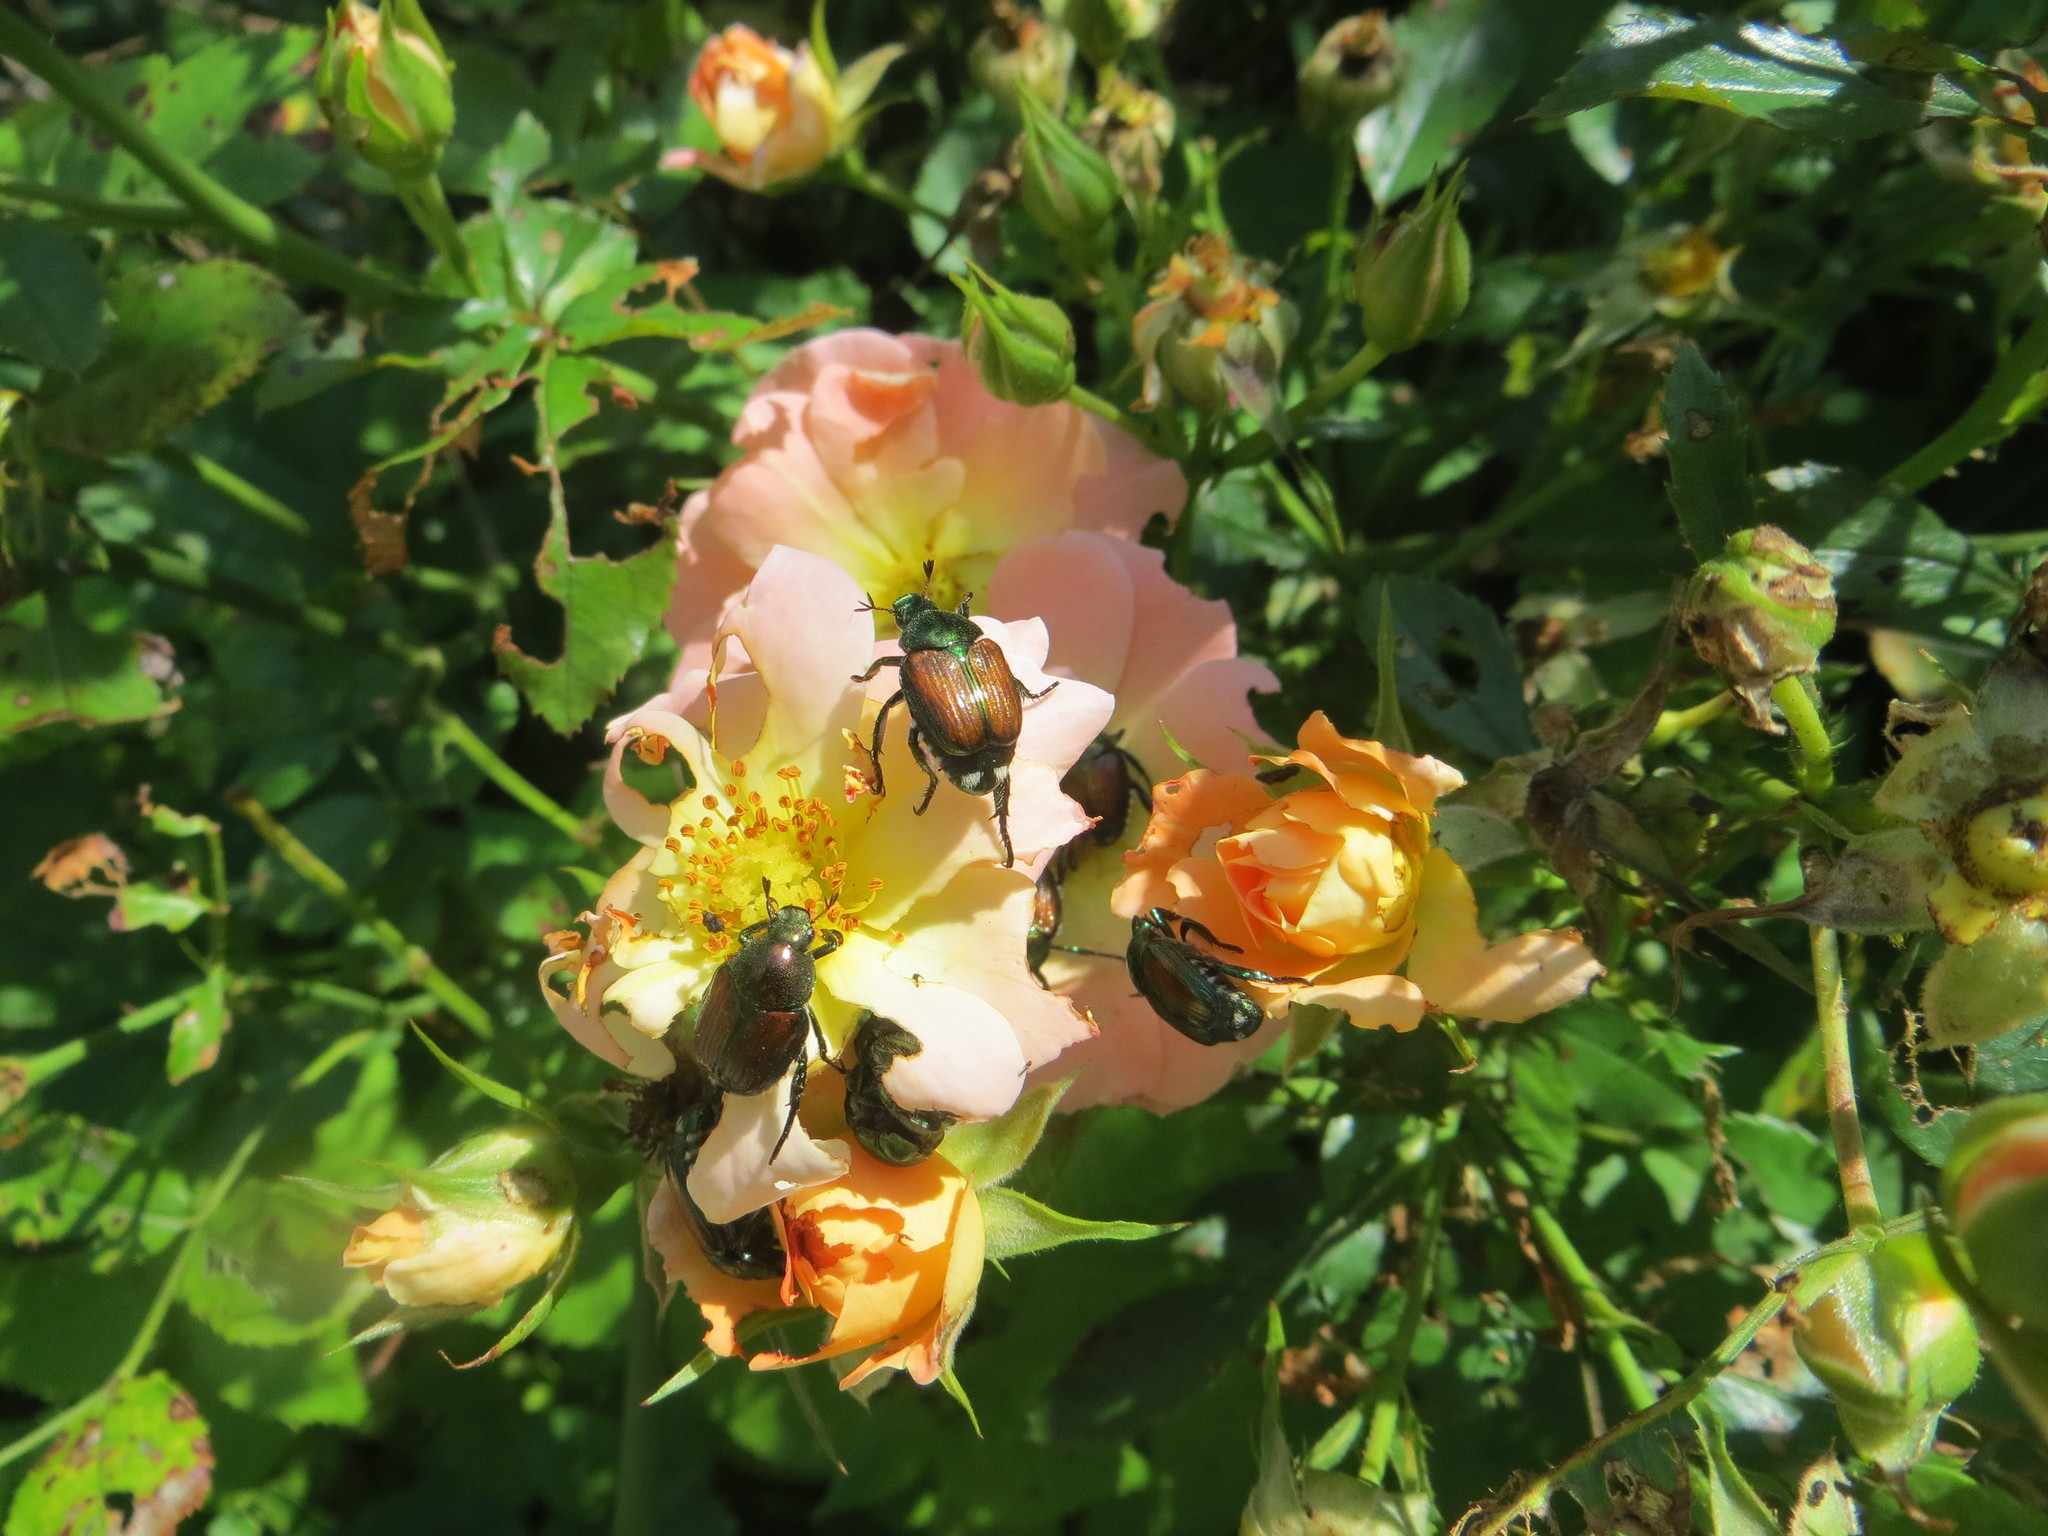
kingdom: Animalia
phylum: Arthropoda
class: Insecta
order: Coleoptera
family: Scarabaeidae
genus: Popillia
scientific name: Popillia japonica
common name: Japanese beetle
